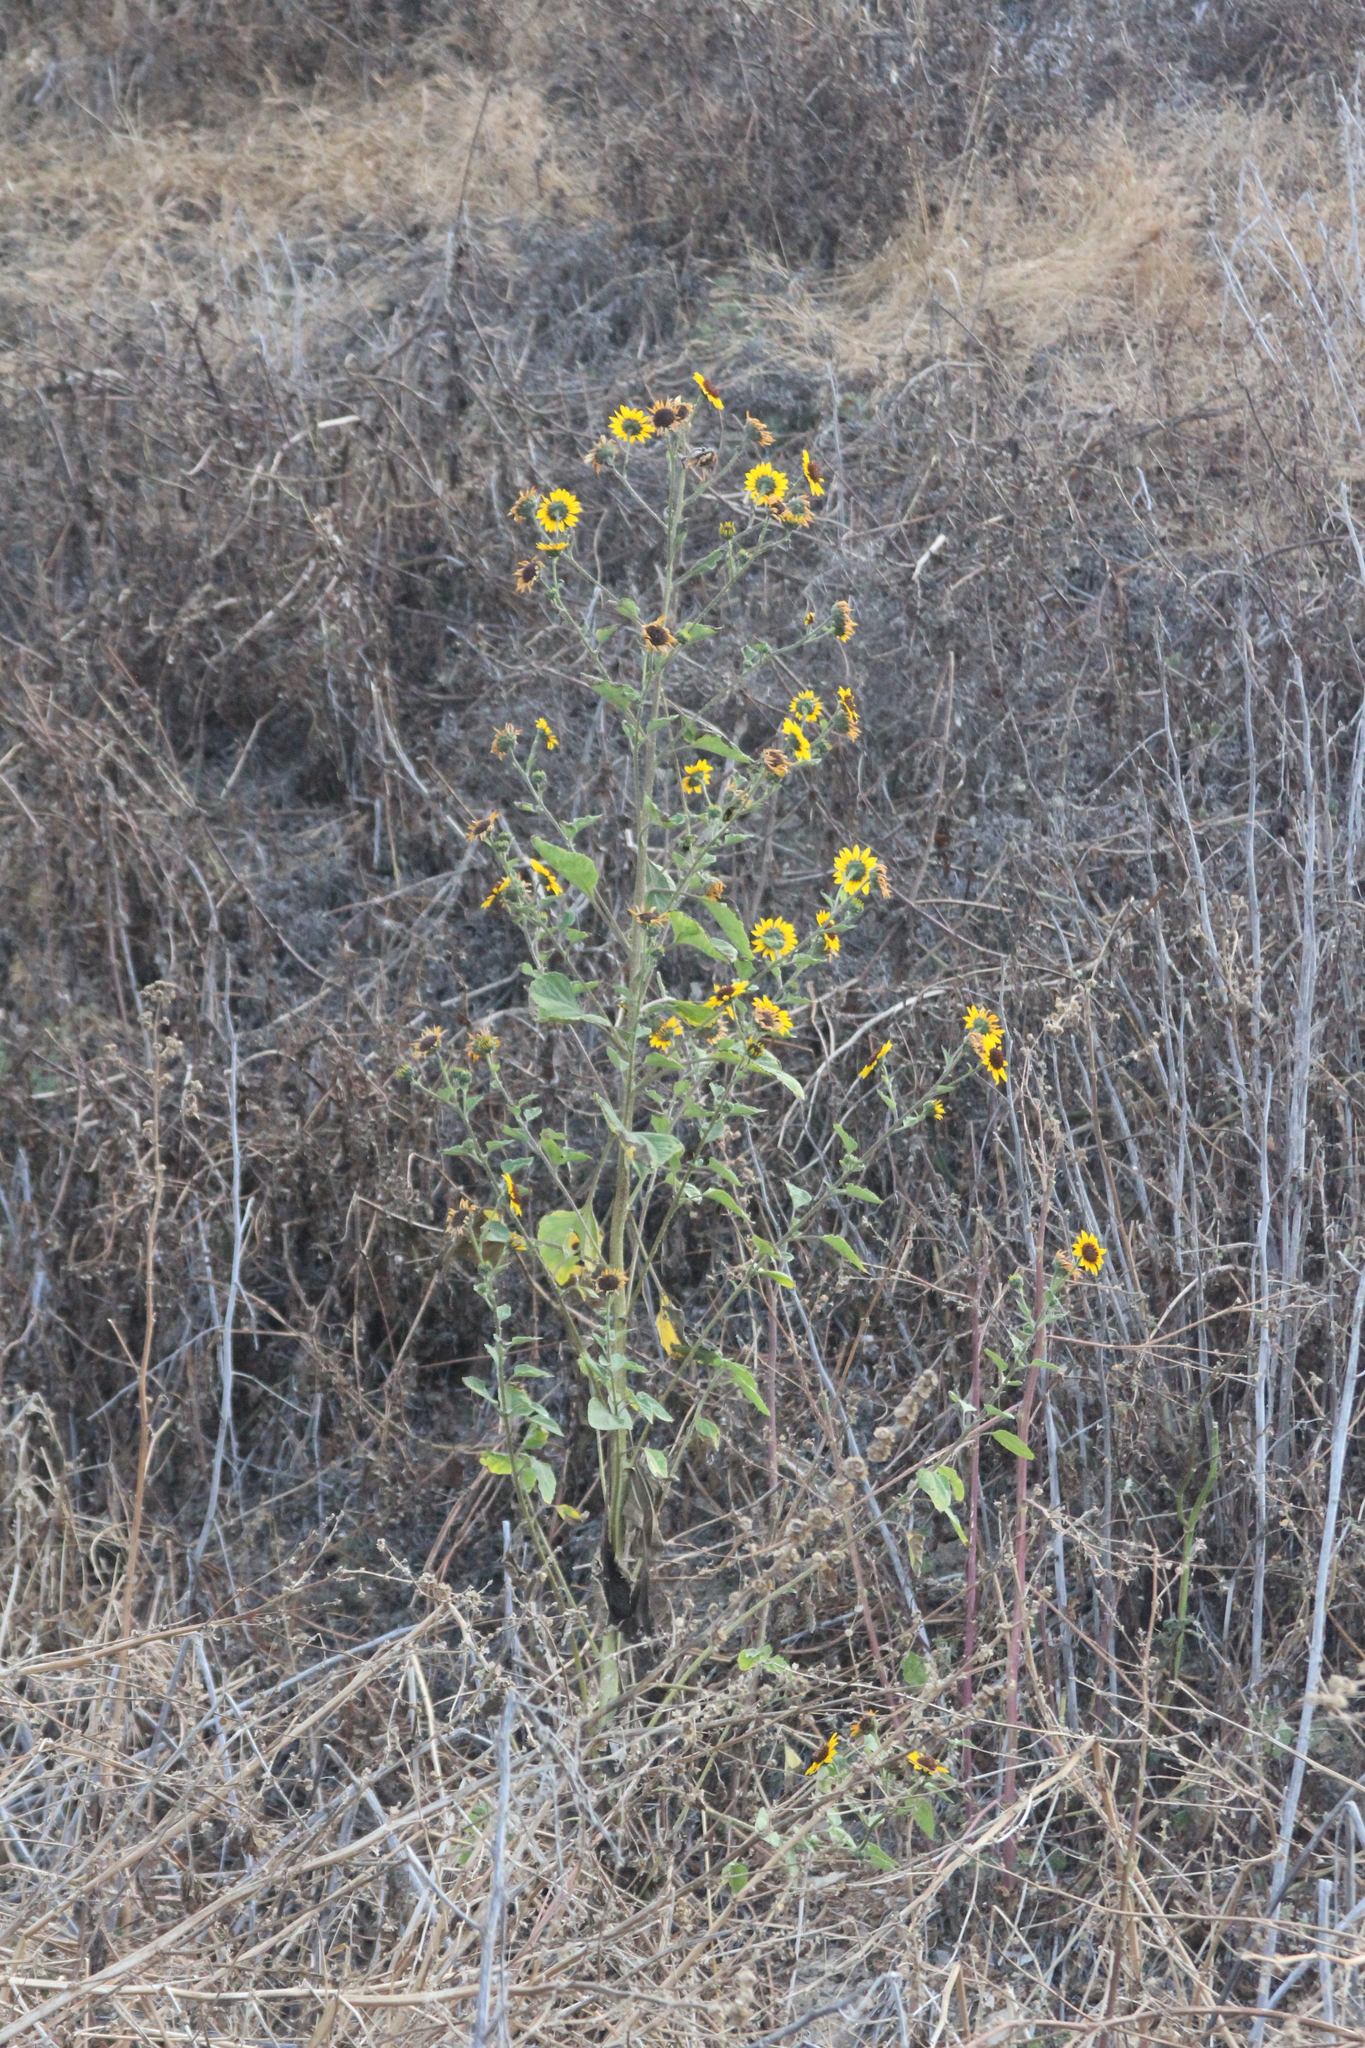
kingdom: Plantae
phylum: Tracheophyta
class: Magnoliopsida
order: Asterales
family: Asteraceae
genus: Helianthus
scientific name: Helianthus annuus
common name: Sunflower
